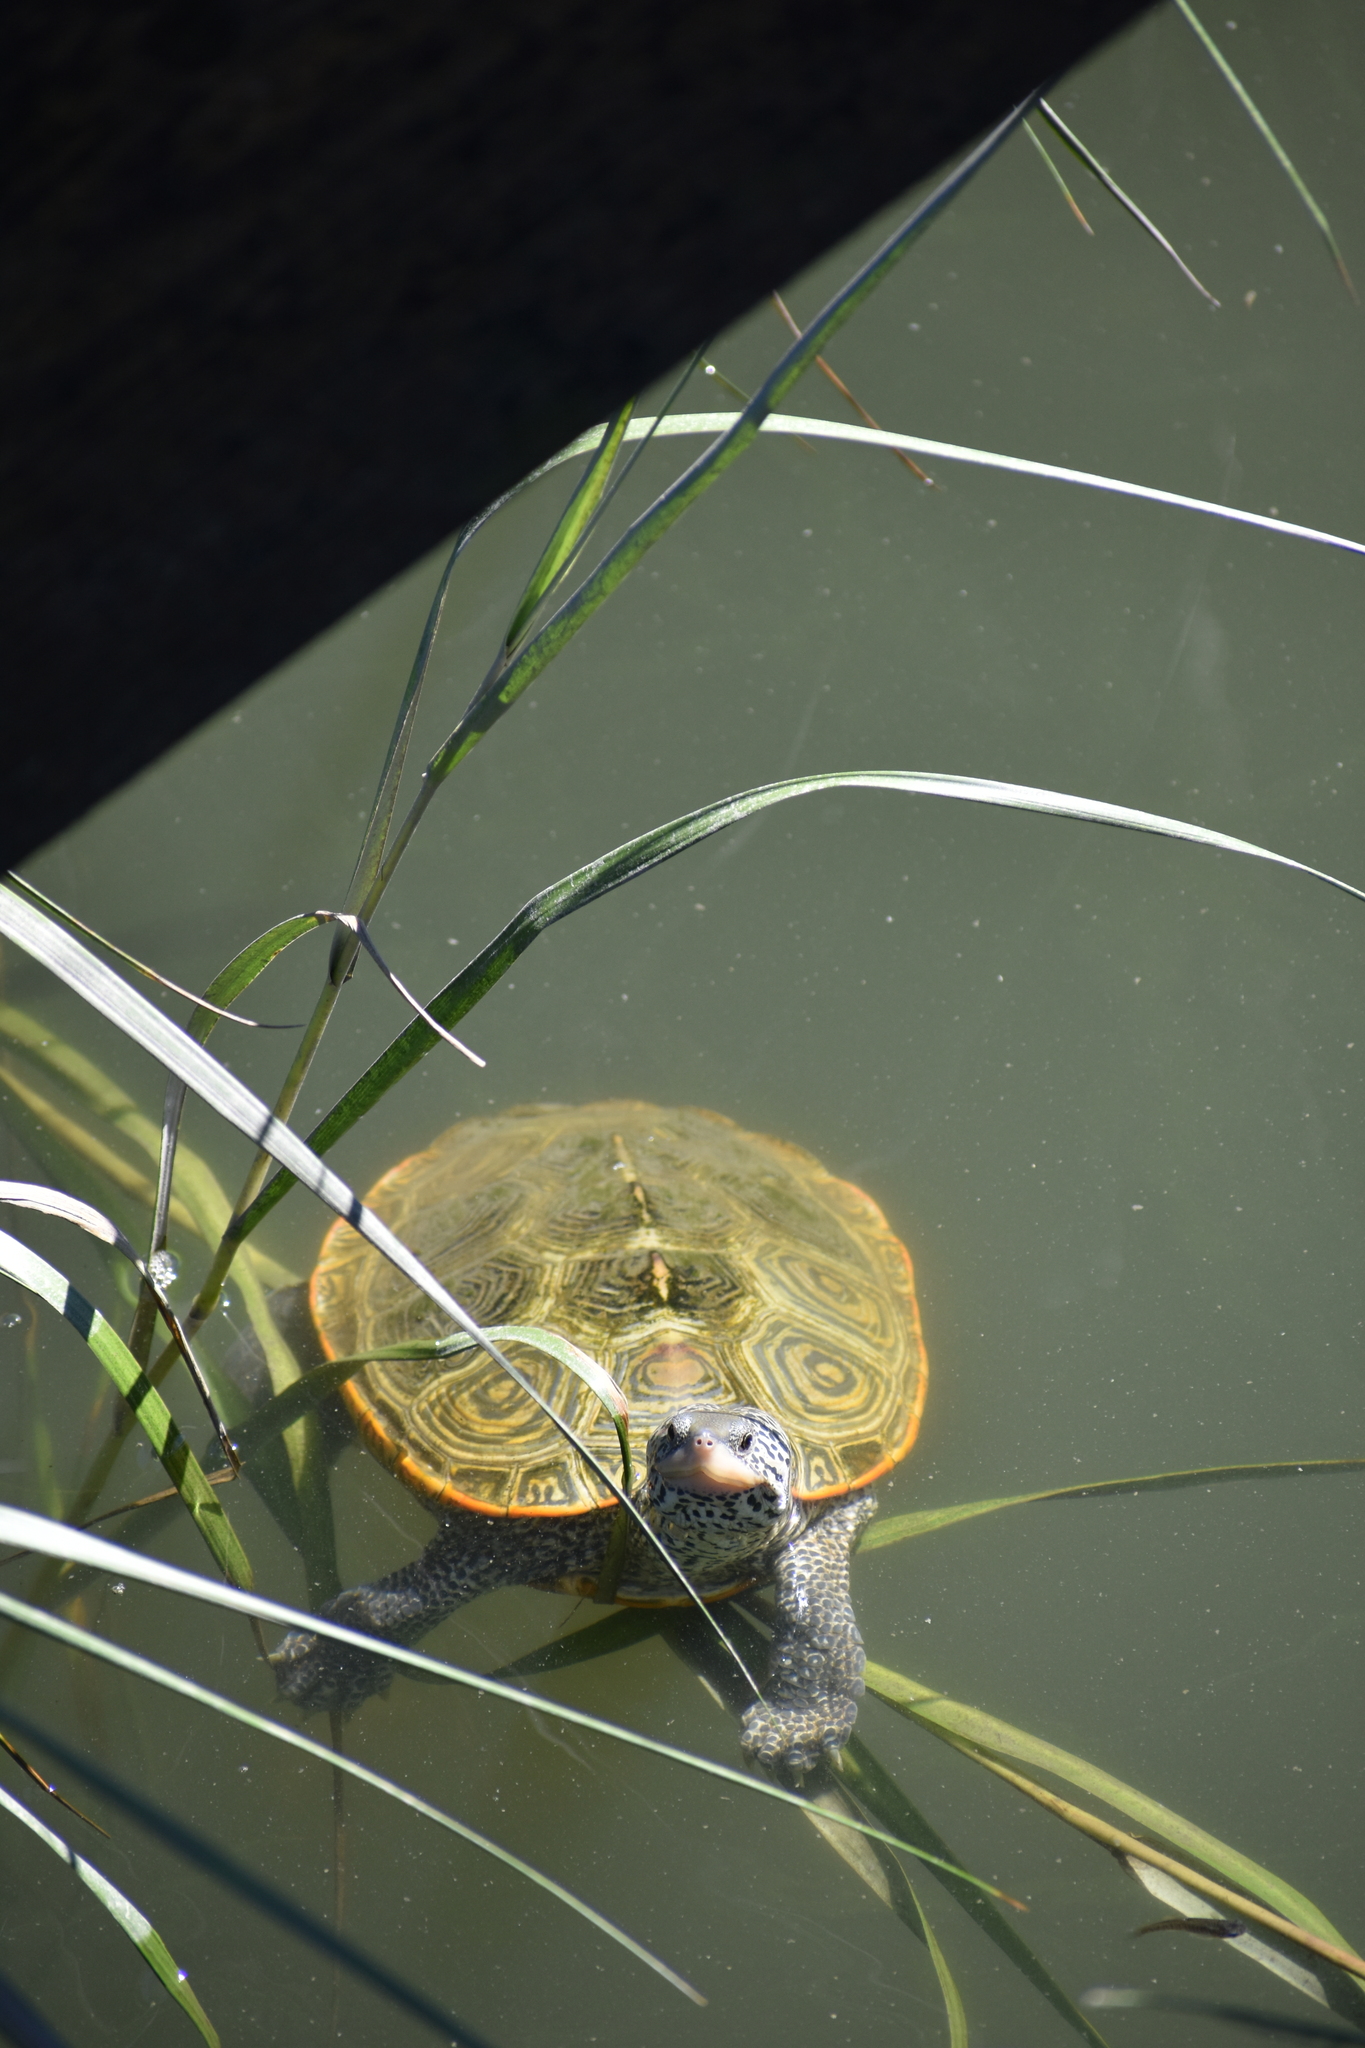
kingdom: Animalia
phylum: Chordata
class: Testudines
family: Emydidae
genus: Malaclemys
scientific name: Malaclemys terrapin
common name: Diamondback terrapin
